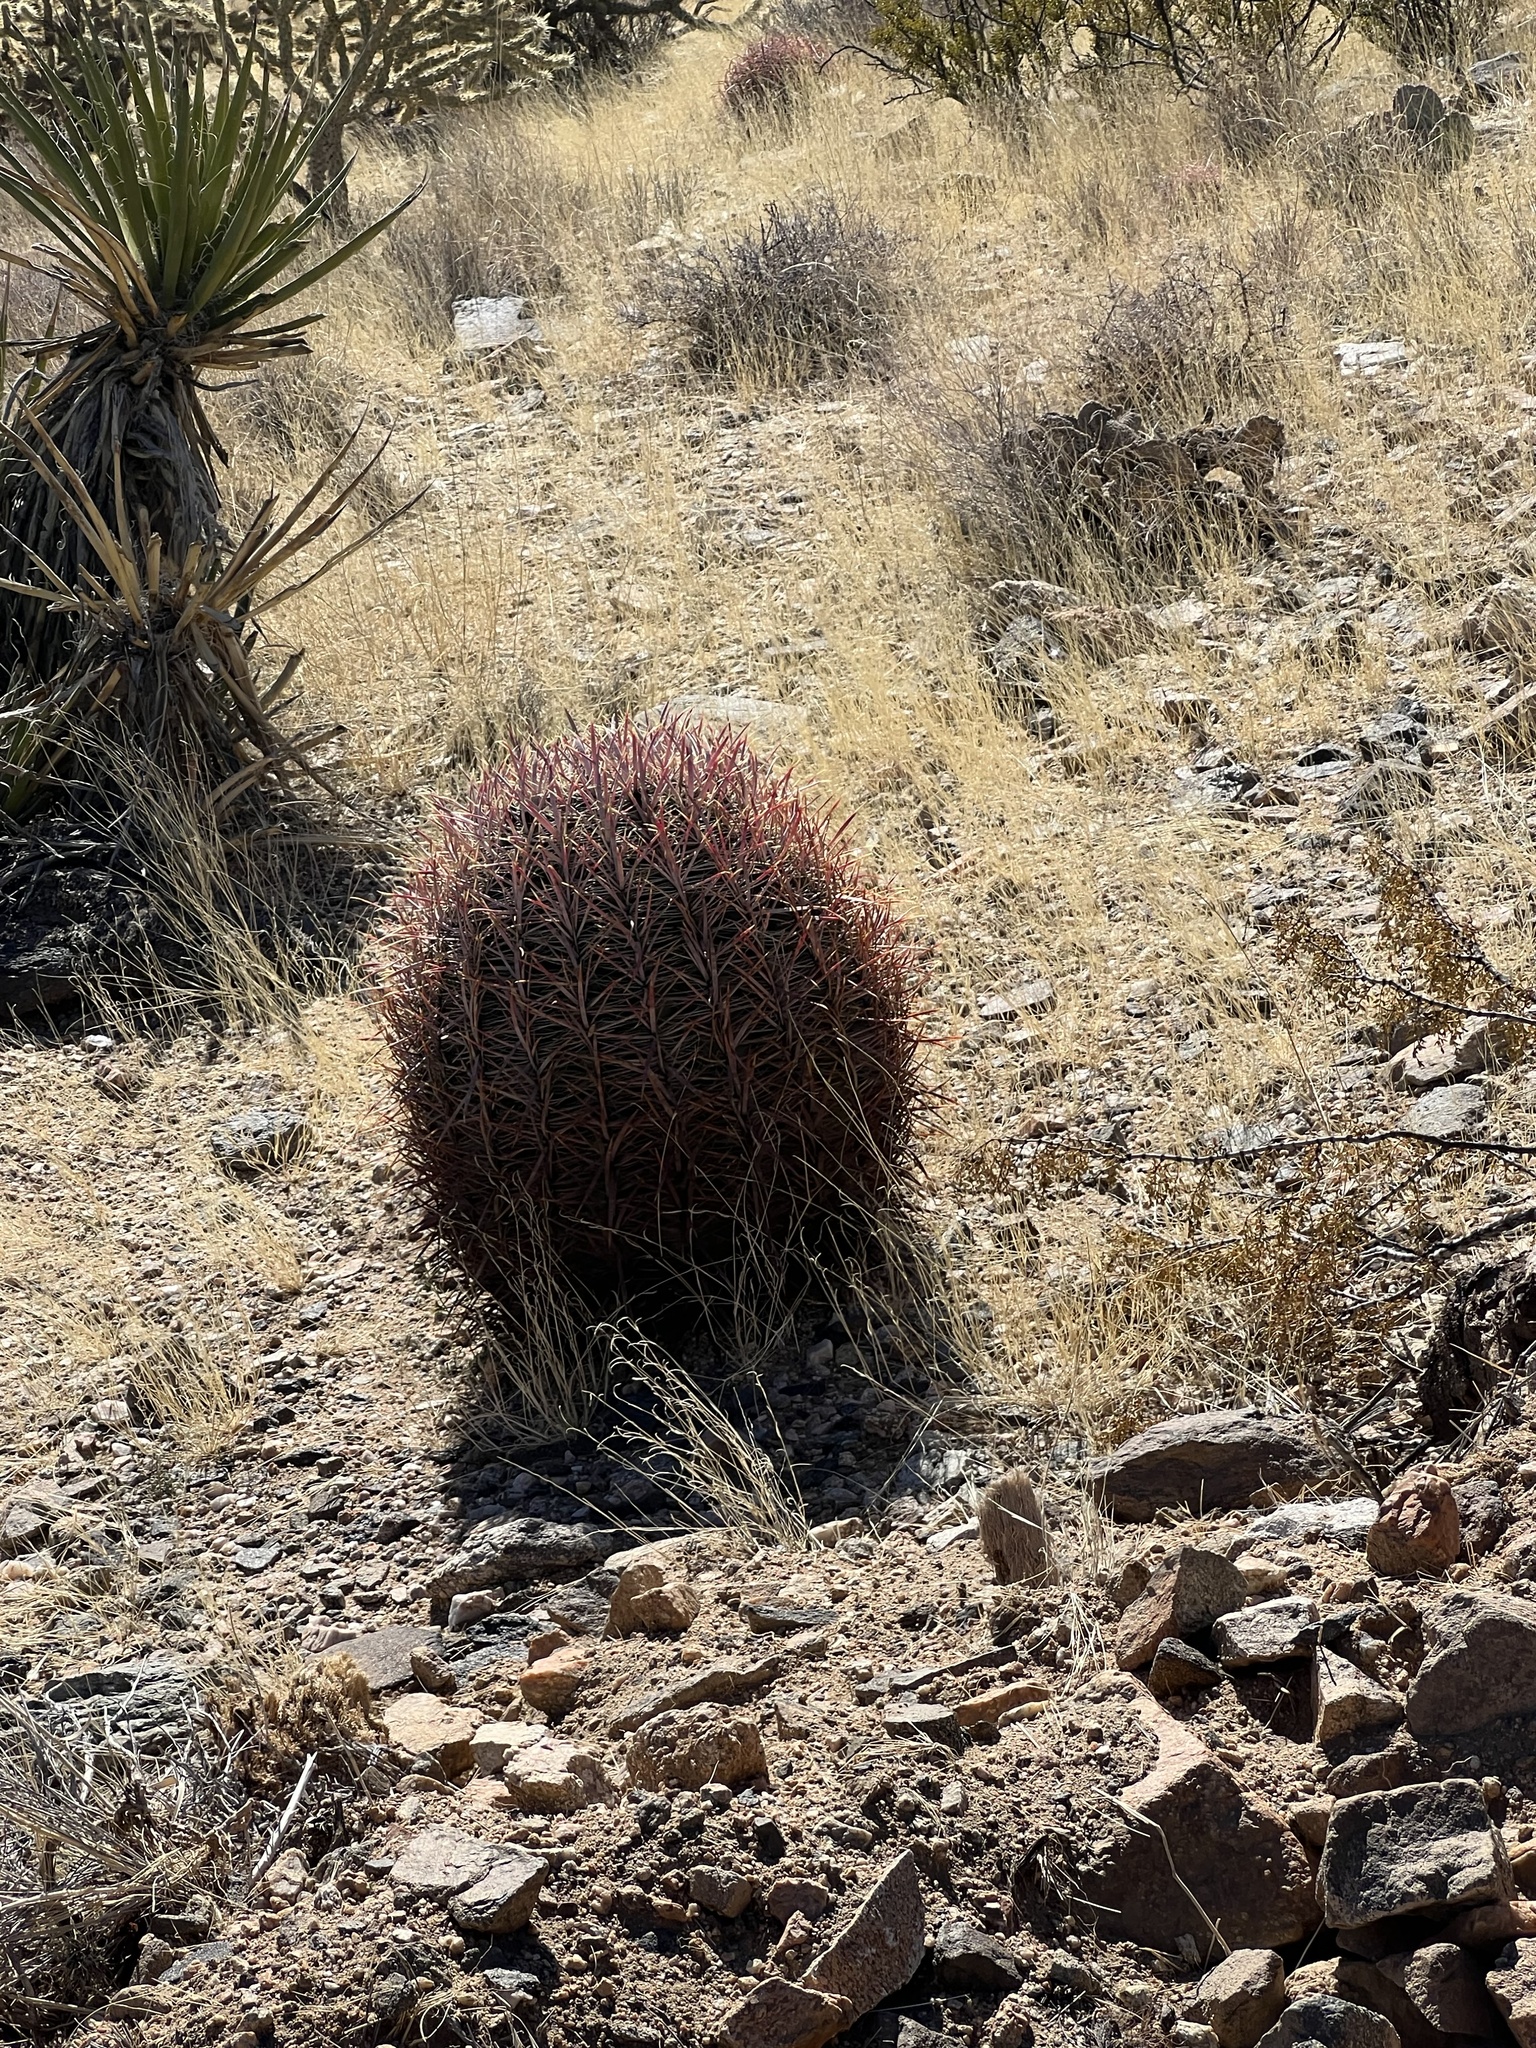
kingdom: Plantae
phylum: Tracheophyta
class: Magnoliopsida
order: Caryophyllales
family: Cactaceae
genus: Ferocactus
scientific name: Ferocactus cylindraceus
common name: California barrel cactus
